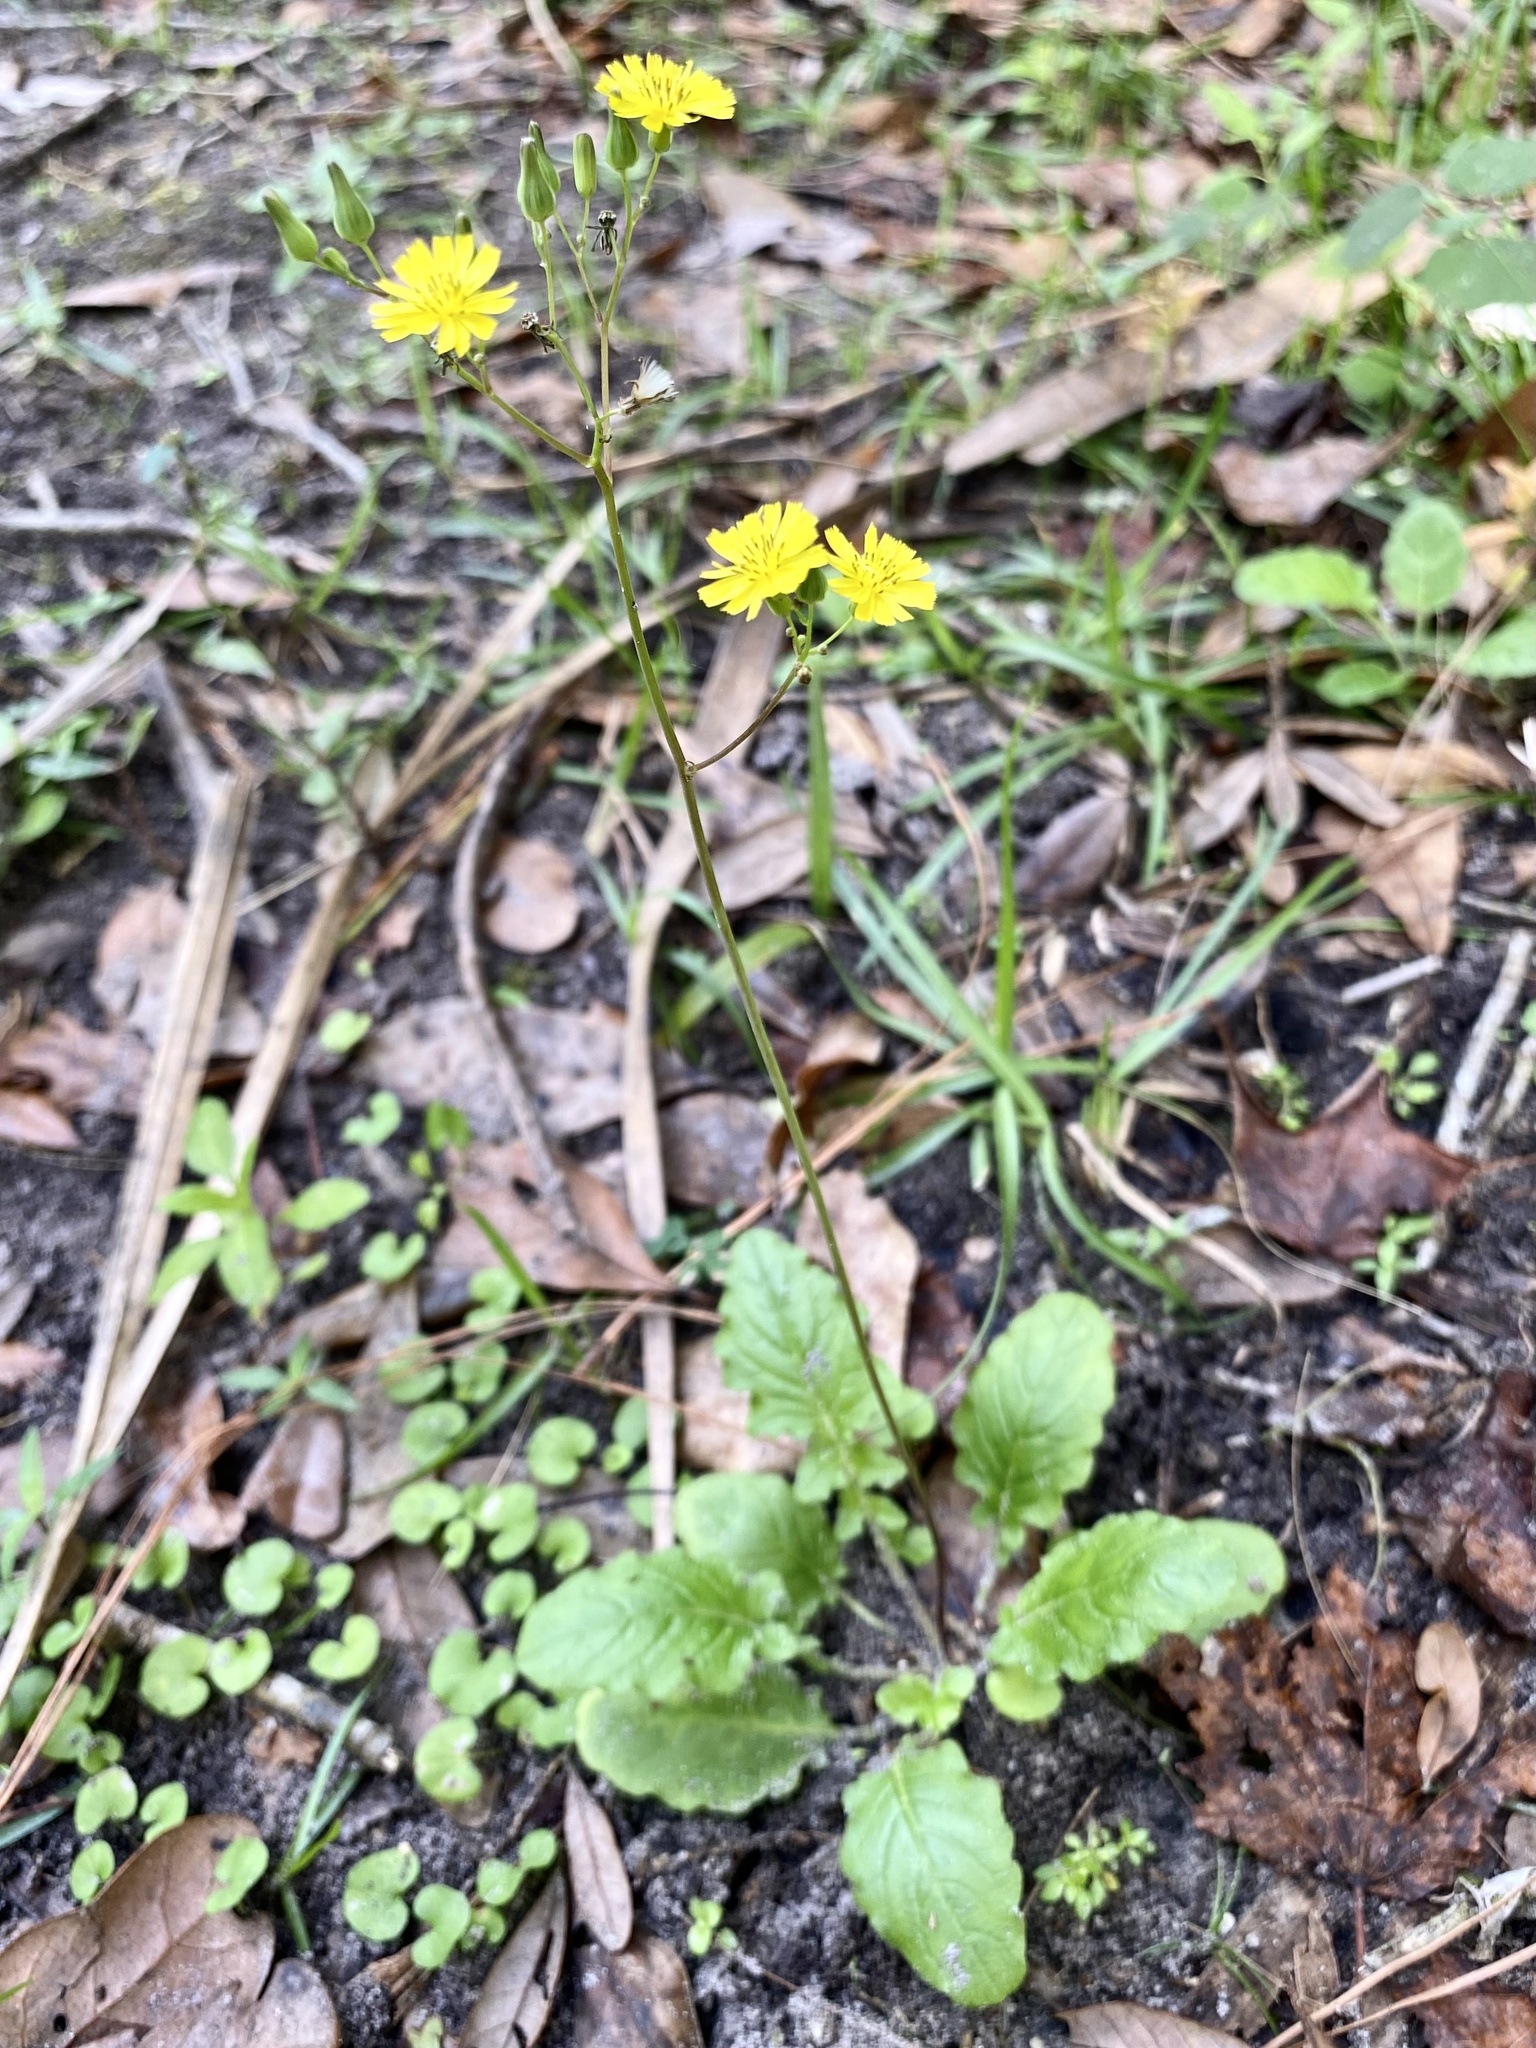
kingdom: Plantae
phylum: Tracheophyta
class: Magnoliopsida
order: Asterales
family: Asteraceae
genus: Youngia
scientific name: Youngia japonica
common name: Oriental false hawksbeard
